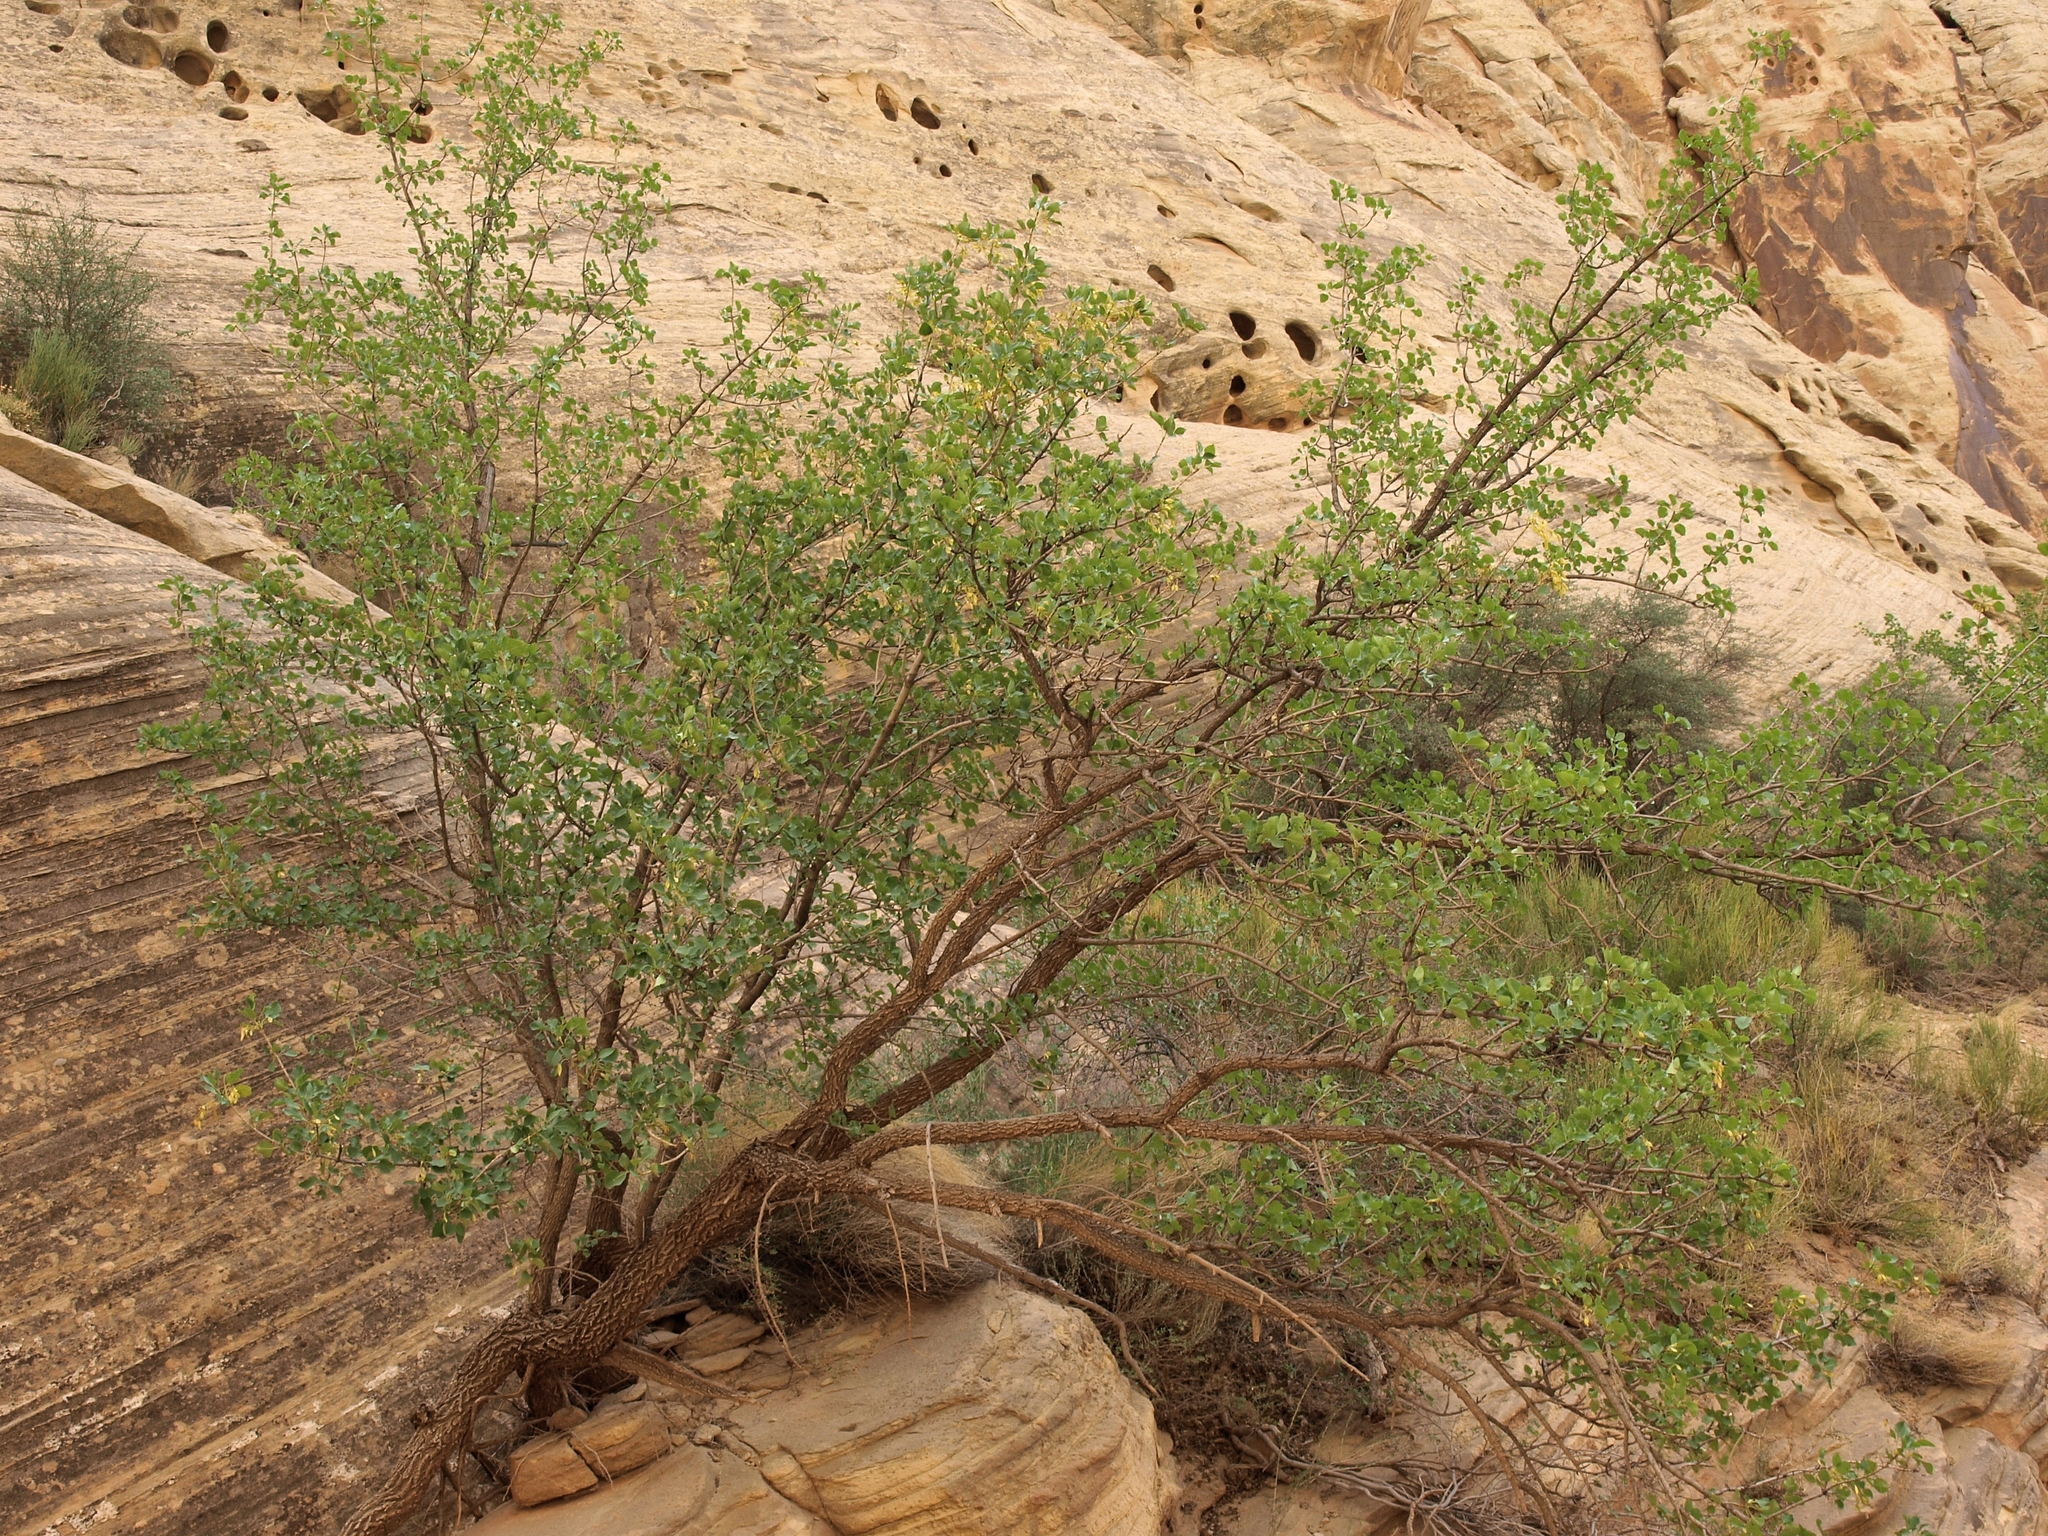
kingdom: Plantae
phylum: Tracheophyta
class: Magnoliopsida
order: Lamiales
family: Oleaceae
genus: Fraxinus
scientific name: Fraxinus anomala
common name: Utah ash
